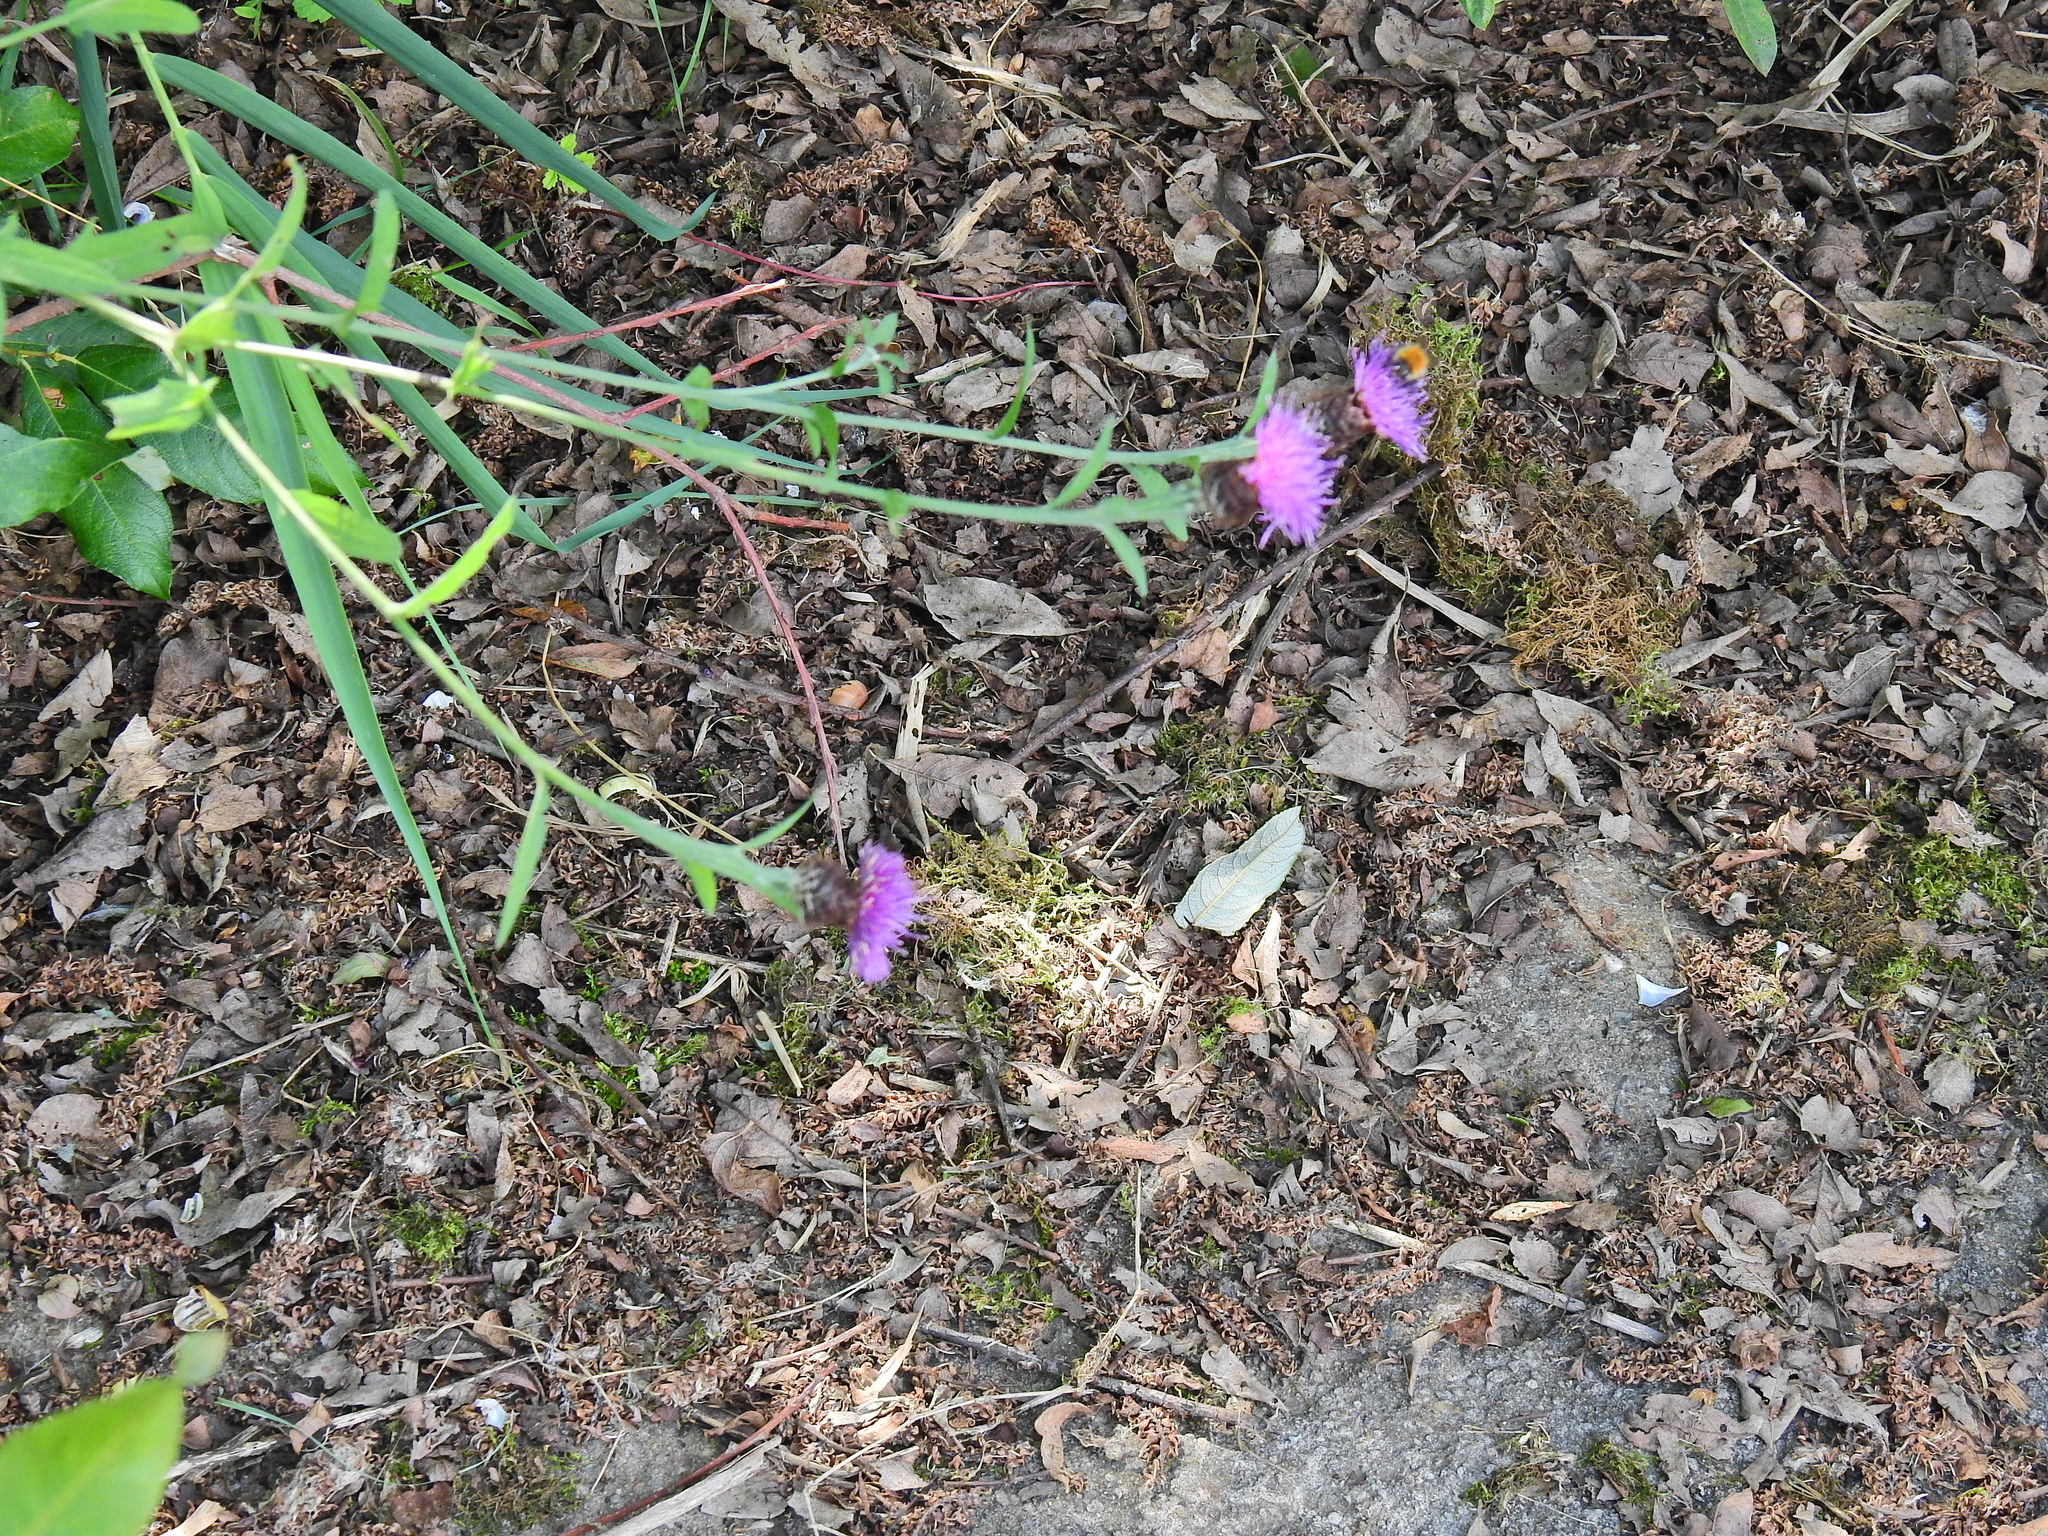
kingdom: Plantae
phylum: Tracheophyta
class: Magnoliopsida
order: Asterales
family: Asteraceae
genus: Centaurea
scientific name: Centaurea nigra
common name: Lesser knapweed
